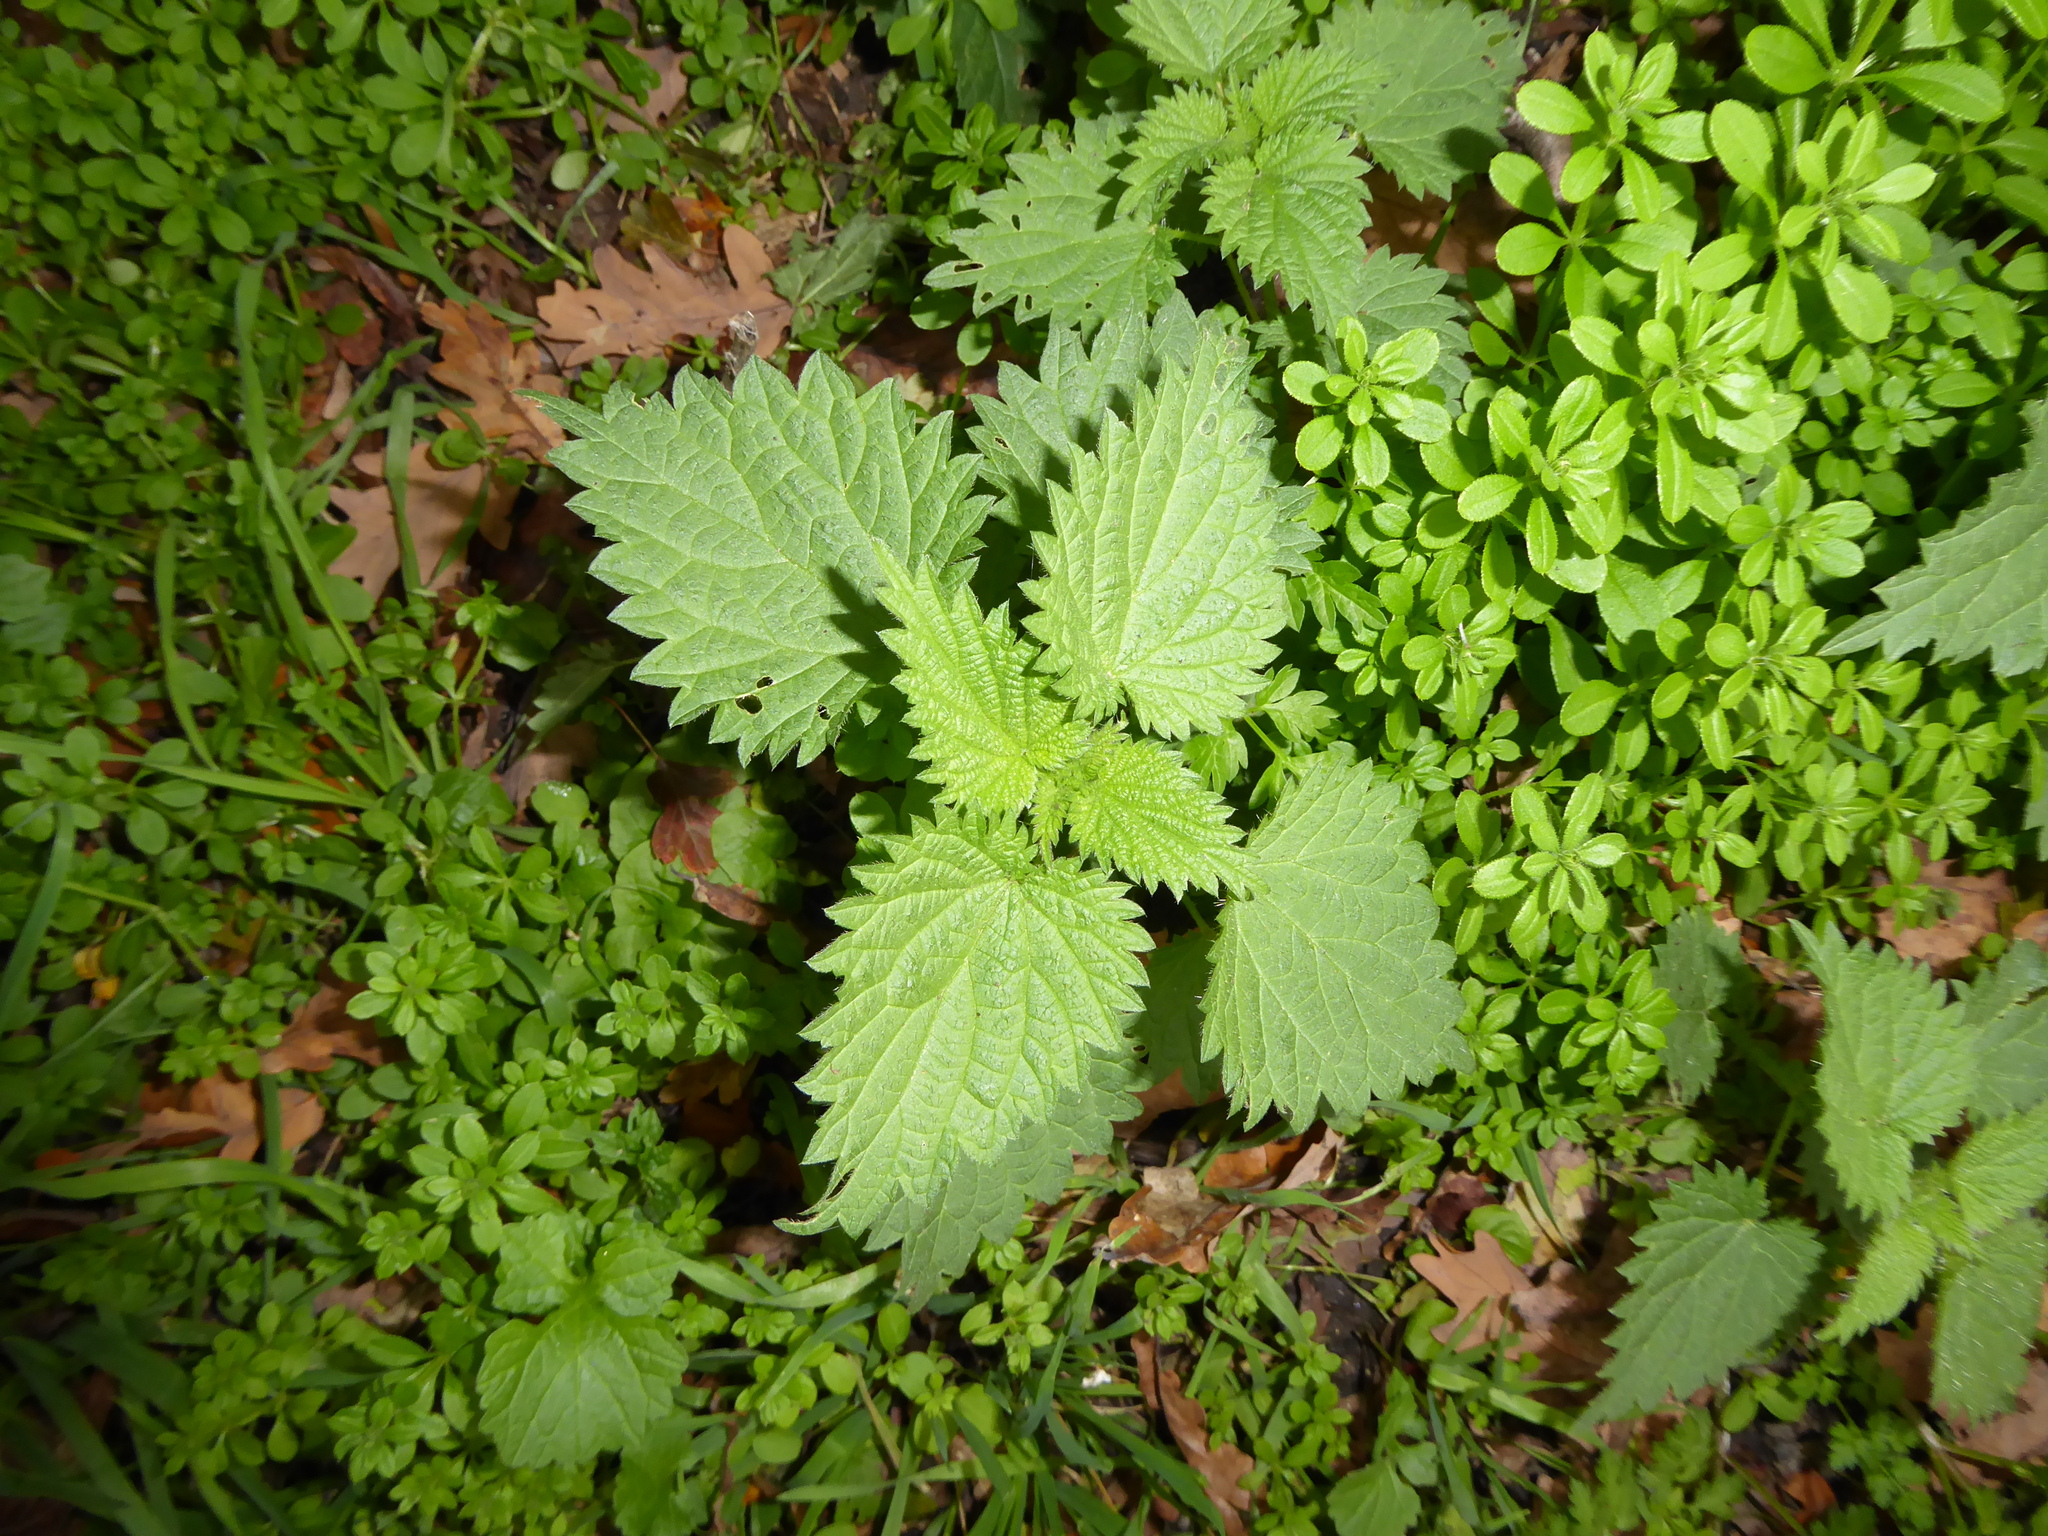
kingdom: Plantae
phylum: Tracheophyta
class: Magnoliopsida
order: Rosales
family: Urticaceae
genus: Urtica
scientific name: Urtica dioica
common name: Common nettle
